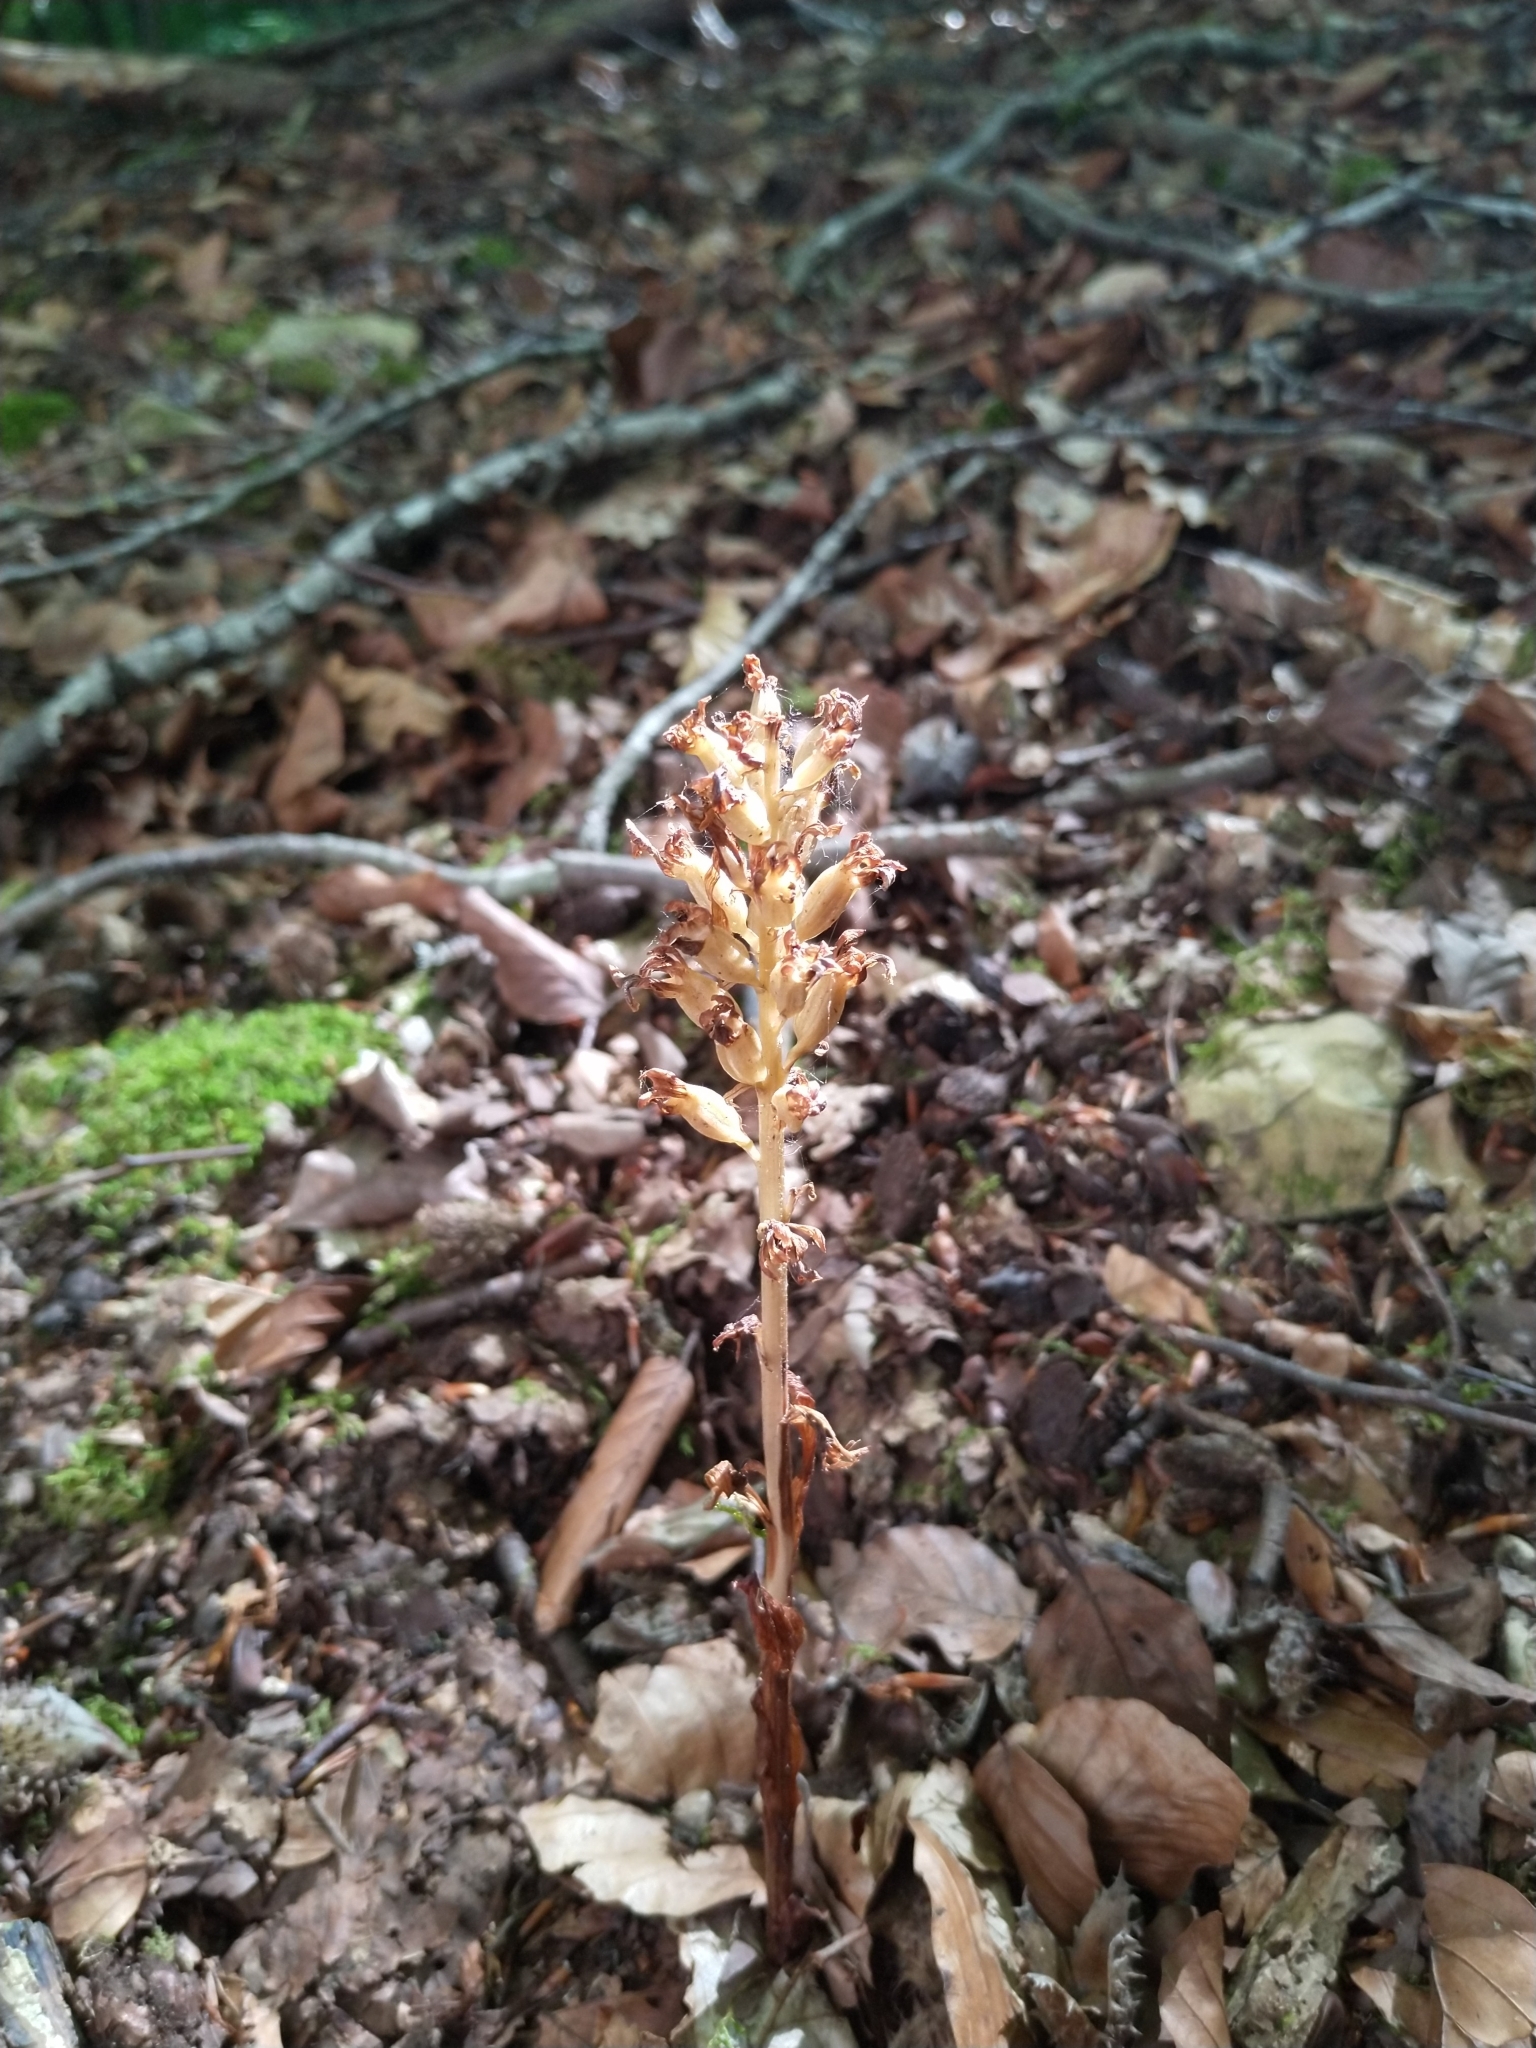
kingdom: Plantae
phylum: Tracheophyta
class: Liliopsida
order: Asparagales
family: Orchidaceae
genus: Neottia
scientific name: Neottia nidus-avis
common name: Bird's-nest orchid
